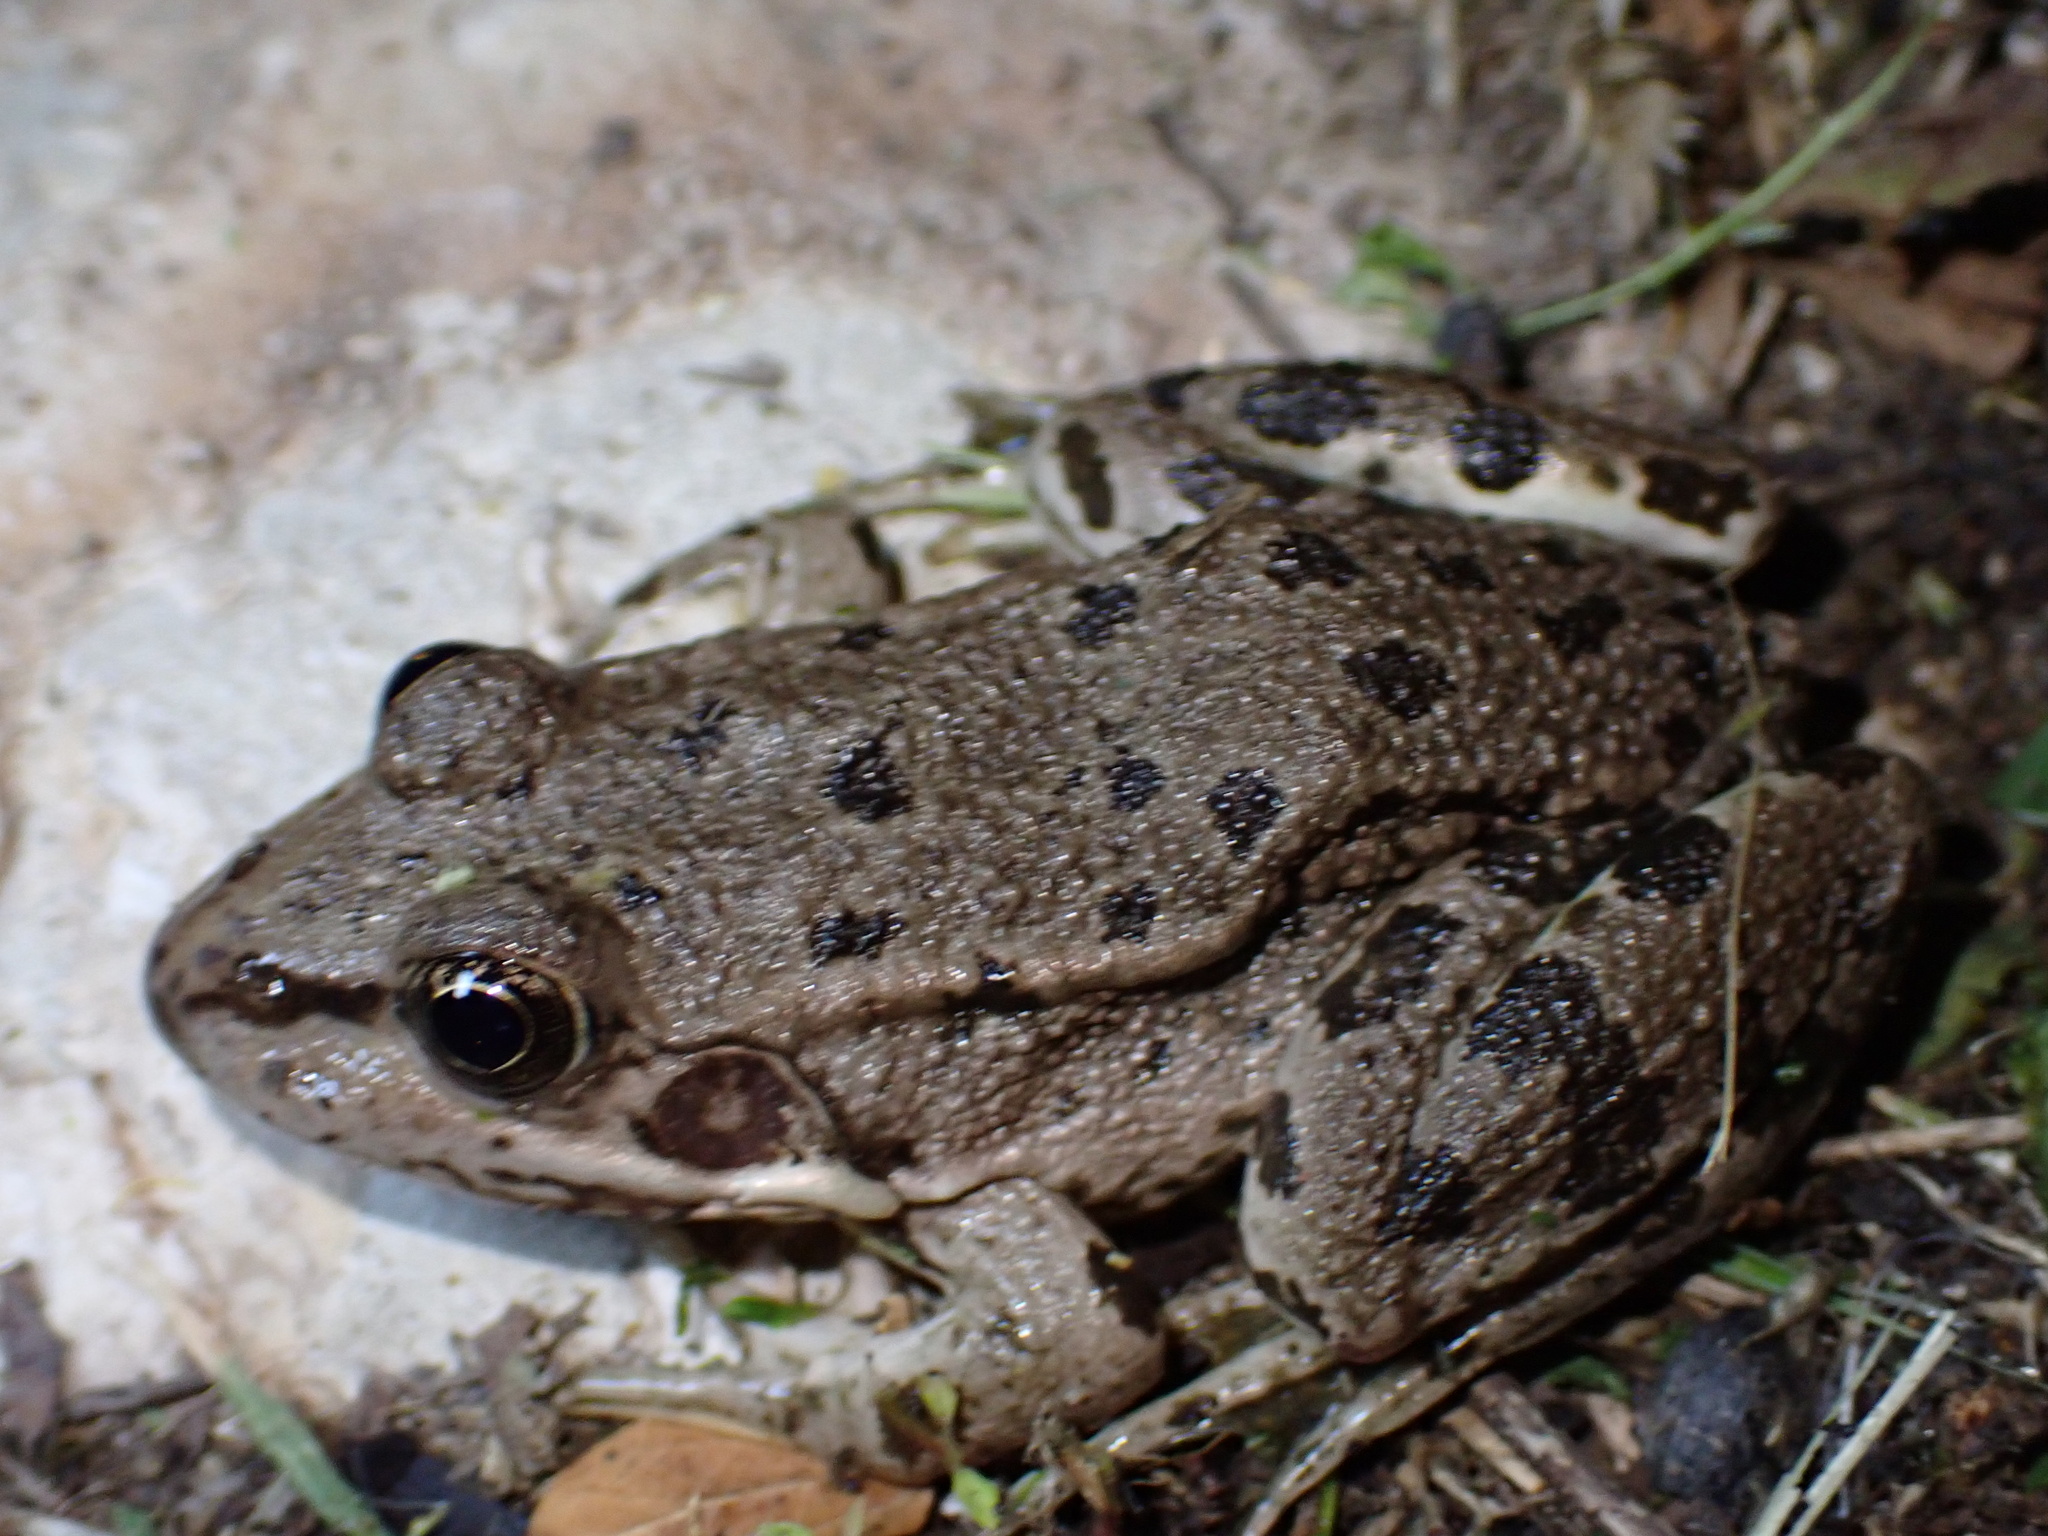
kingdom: Animalia
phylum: Chordata
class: Amphibia
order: Anura
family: Ranidae
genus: Pelophylax
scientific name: Pelophylax ridibundus
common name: Marsh frog
